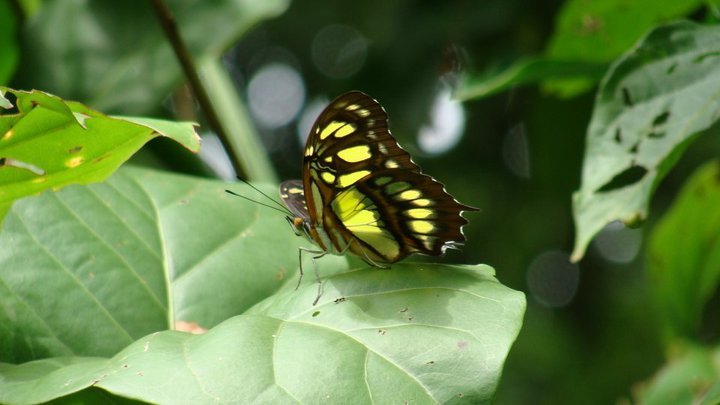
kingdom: Animalia
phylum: Arthropoda
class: Insecta
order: Lepidoptera
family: Nymphalidae
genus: Siproeta
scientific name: Siproeta stelenes
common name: Malachite
